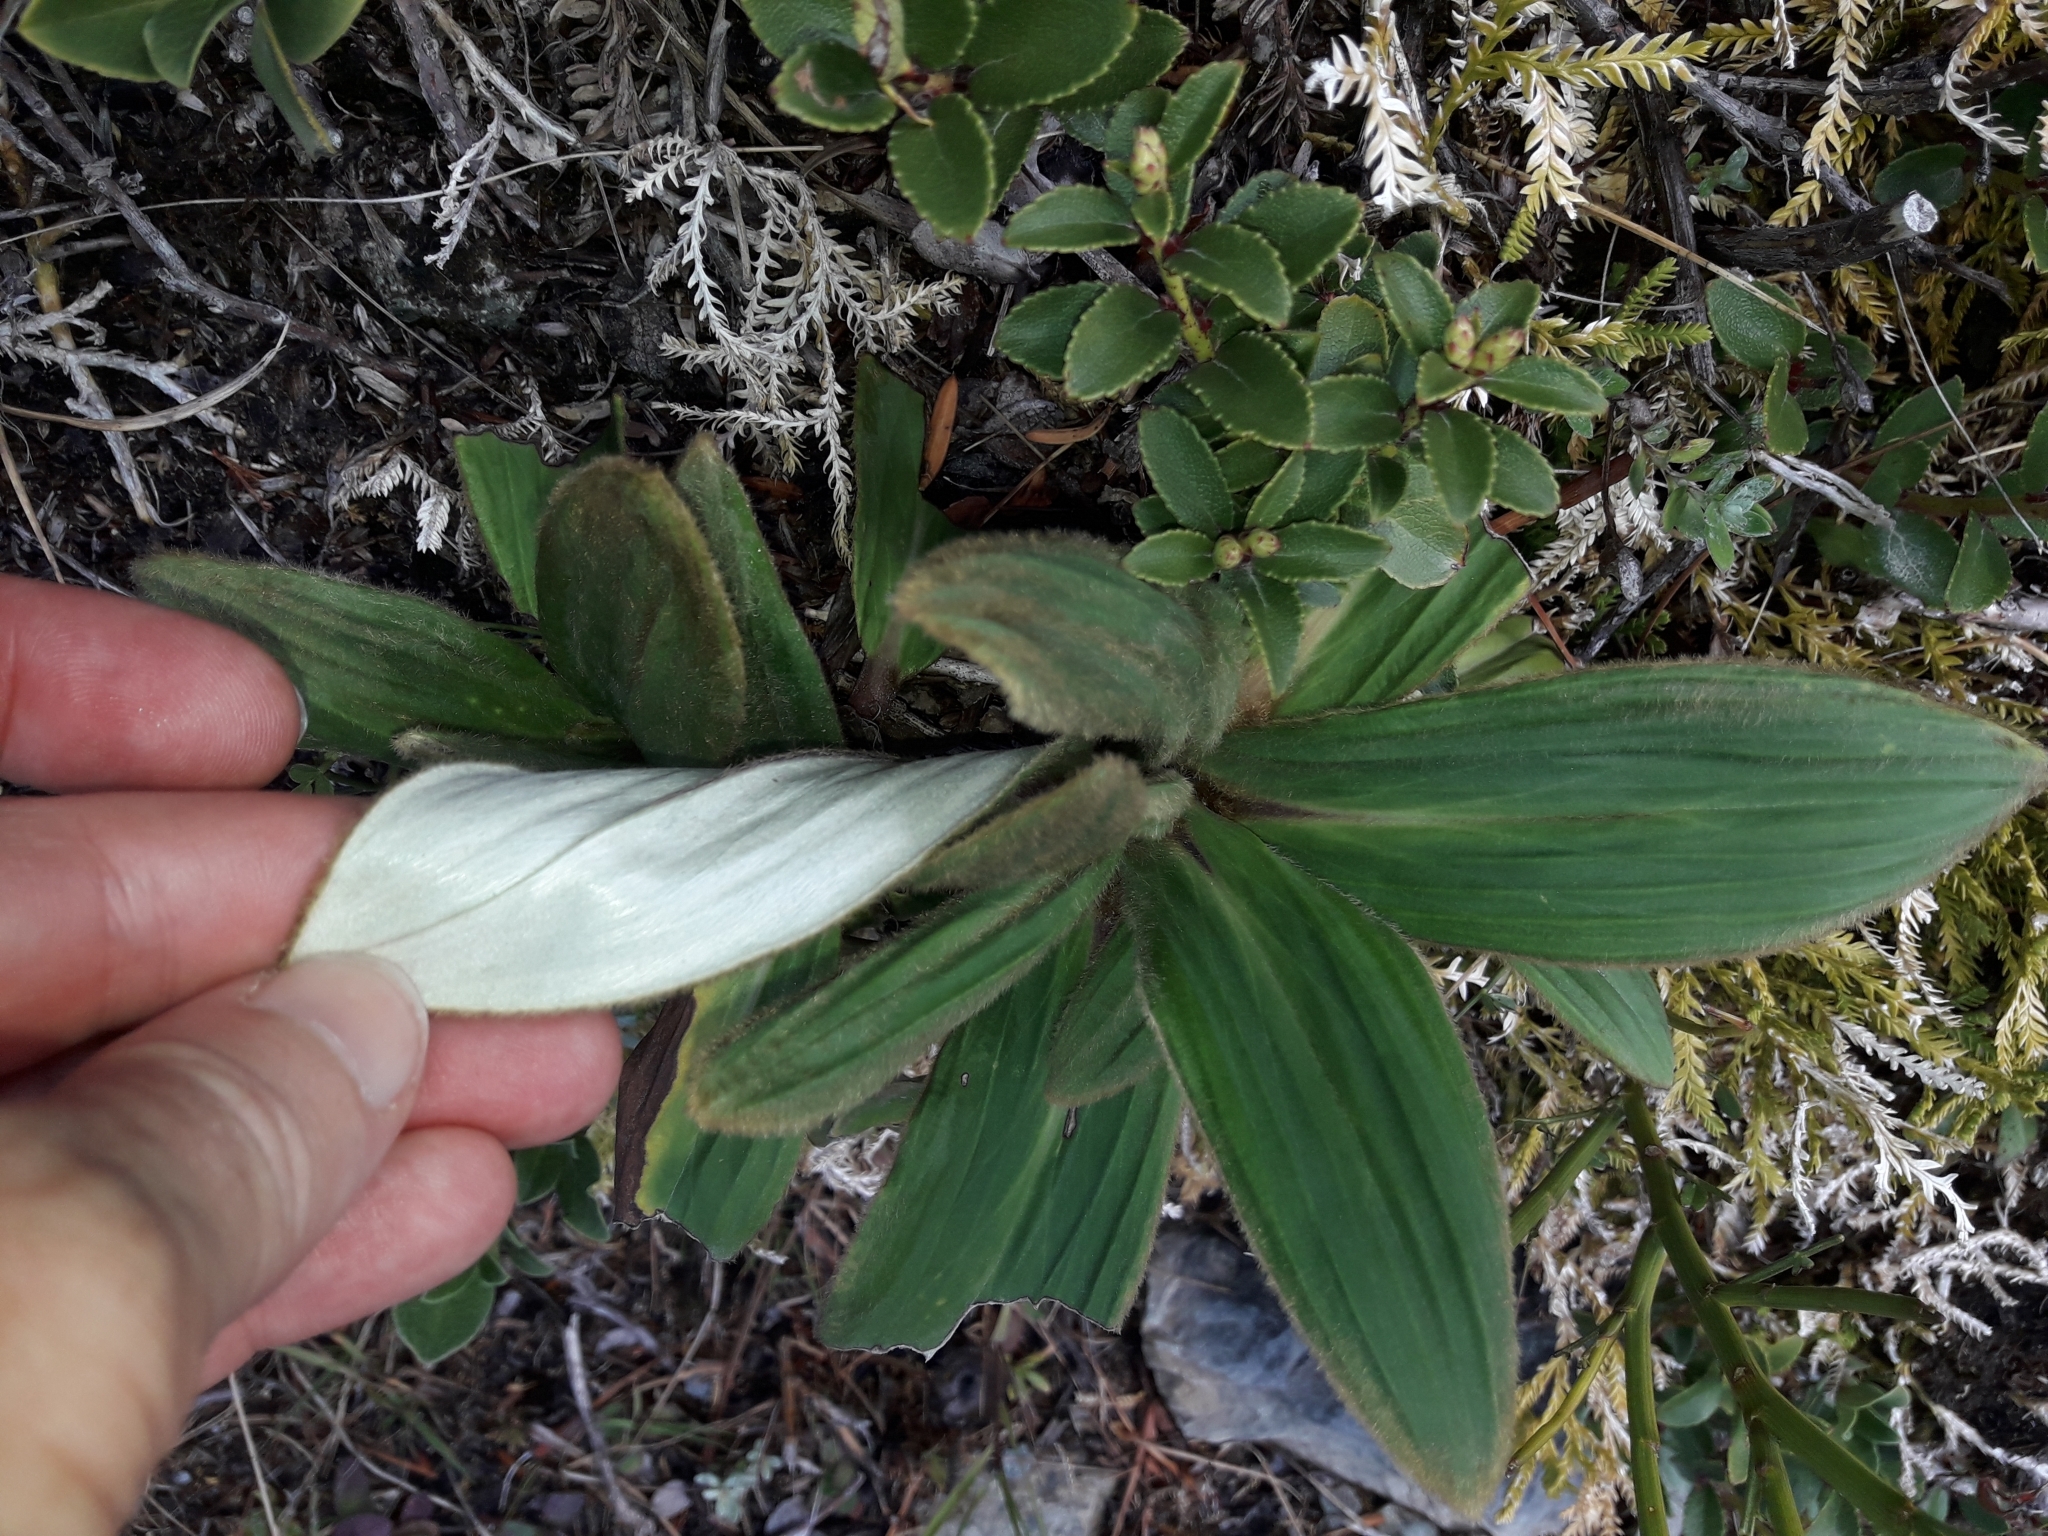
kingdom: Plantae
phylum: Tracheophyta
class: Magnoliopsida
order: Asterales
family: Asteraceae
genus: Celmisia
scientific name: Celmisia verbascifolia
